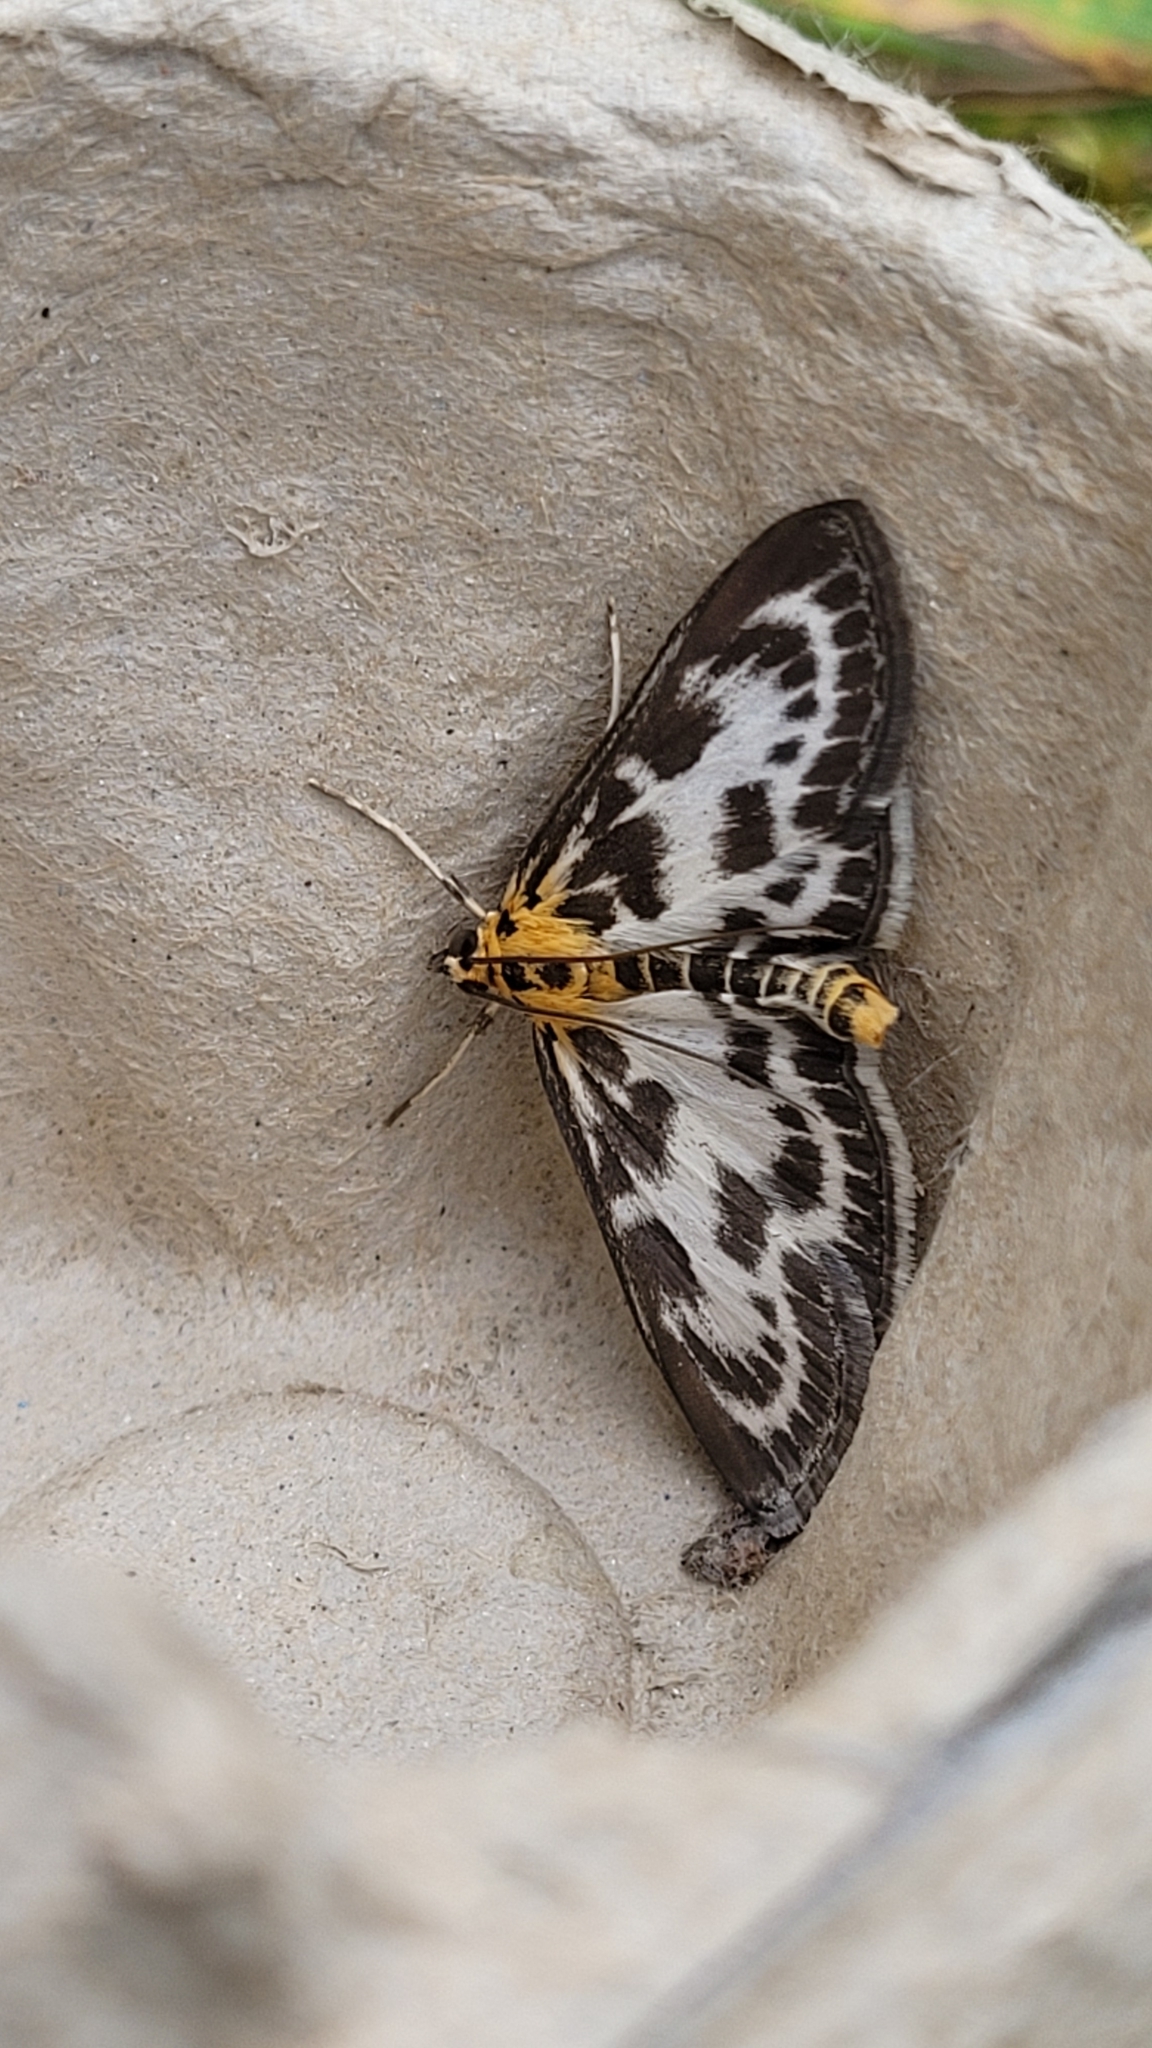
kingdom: Animalia
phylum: Arthropoda
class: Insecta
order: Lepidoptera
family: Crambidae
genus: Anania
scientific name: Anania hortulata
